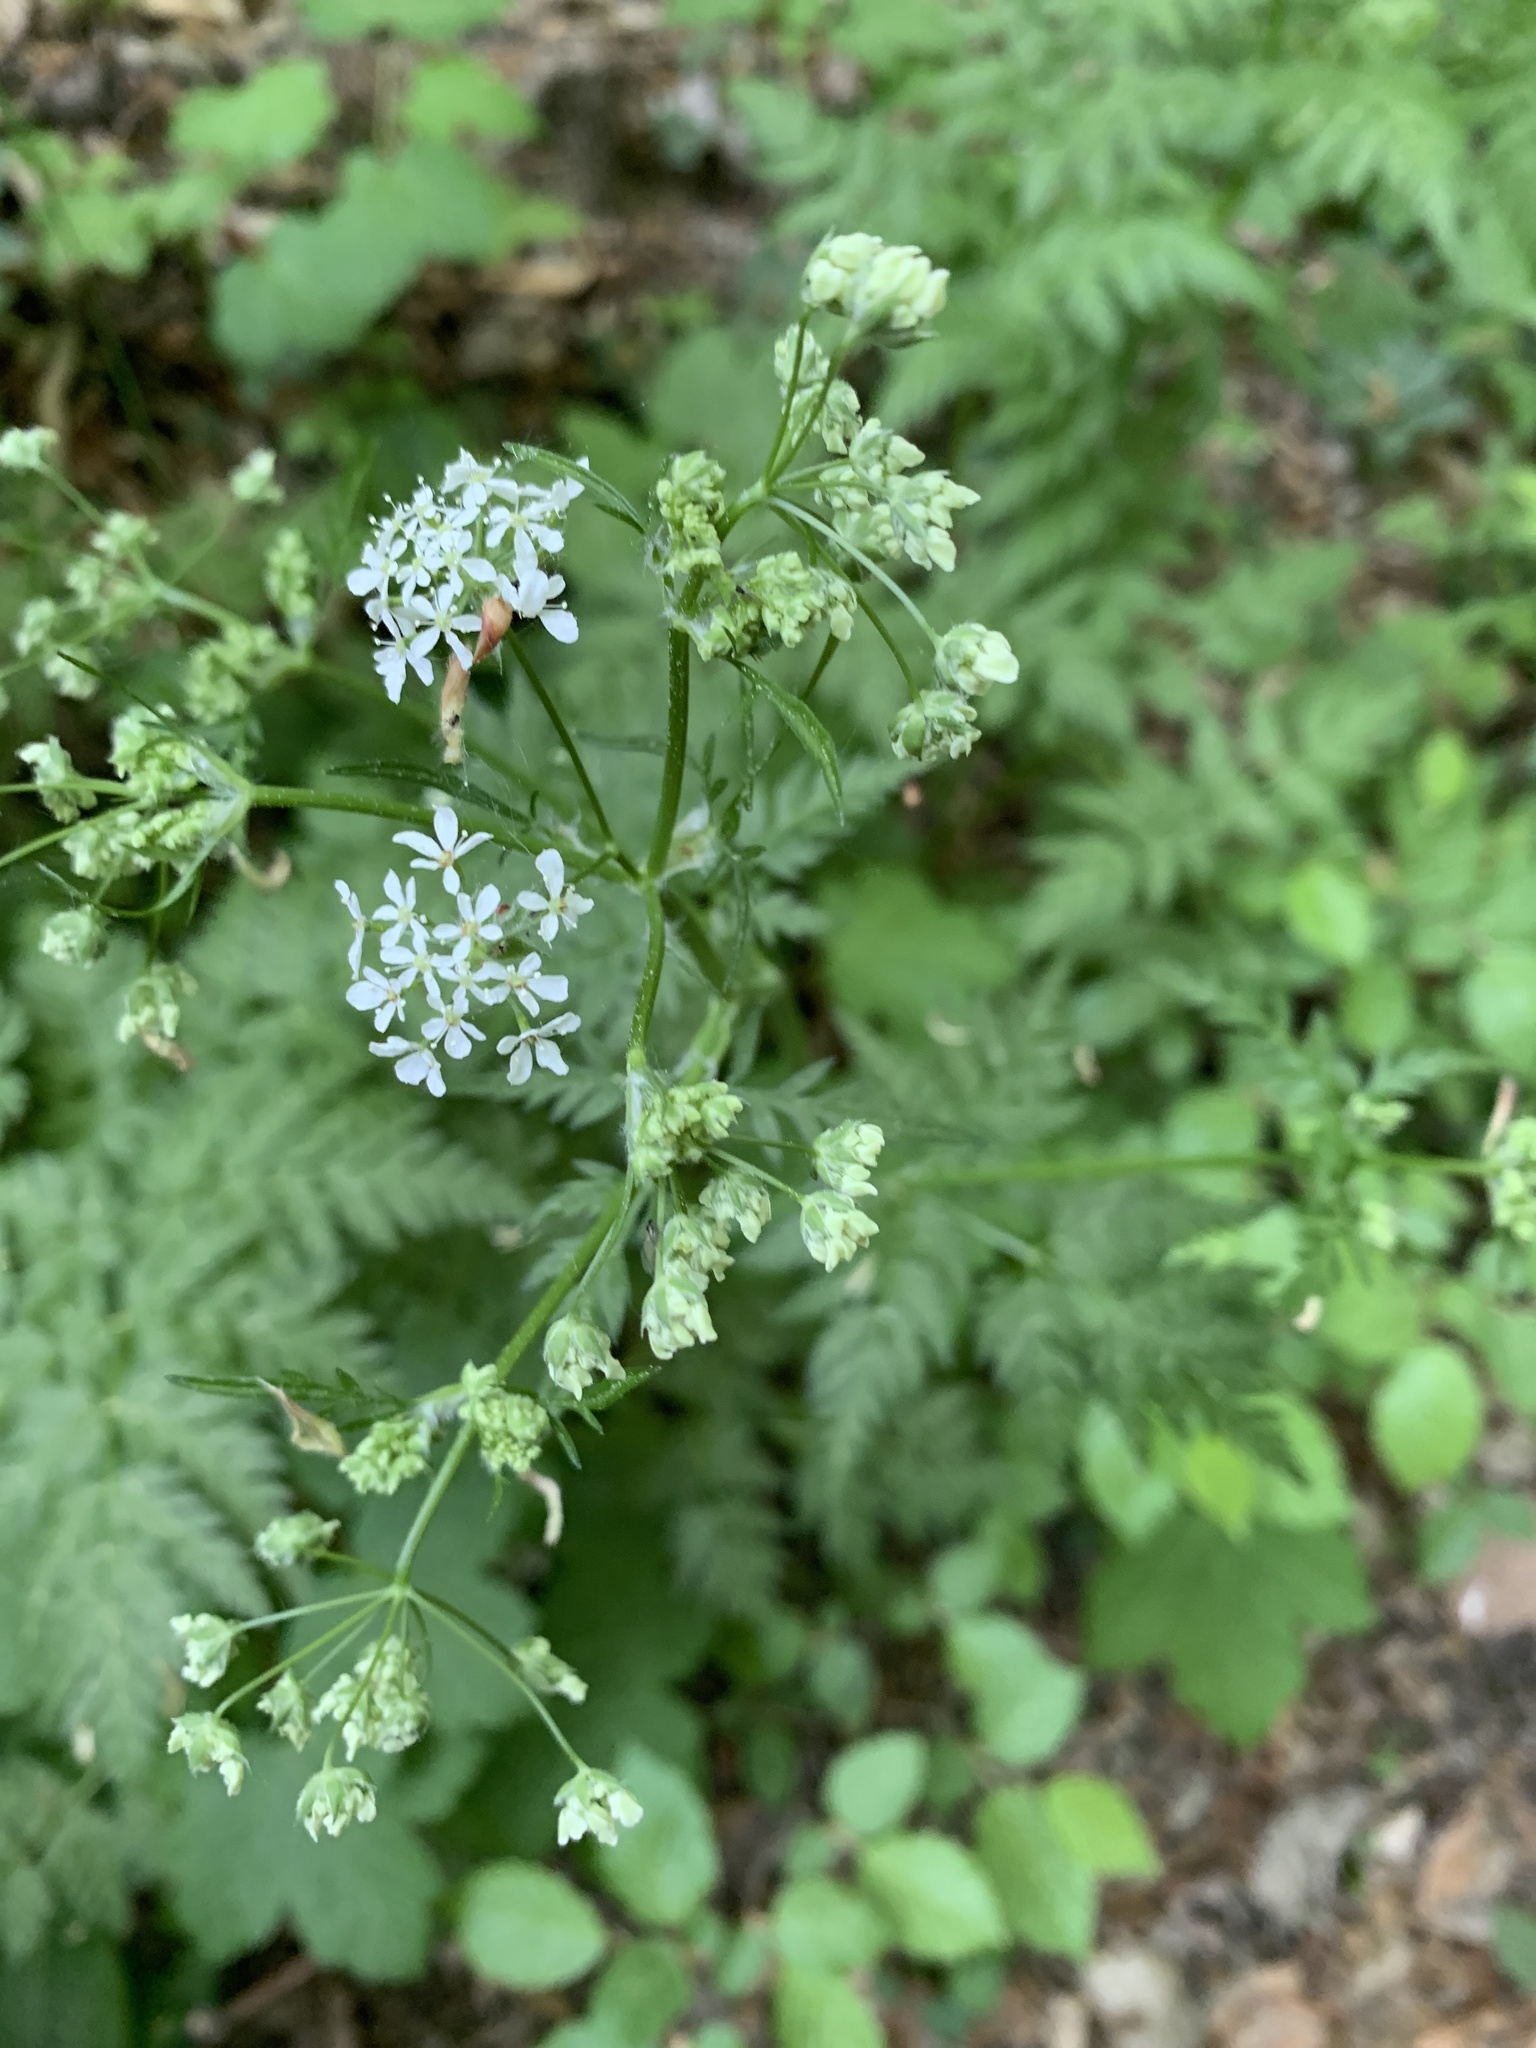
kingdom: Plantae
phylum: Tracheophyta
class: Magnoliopsida
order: Apiales
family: Apiaceae
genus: Anthriscus
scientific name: Anthriscus sylvestris
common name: Cow parsley
